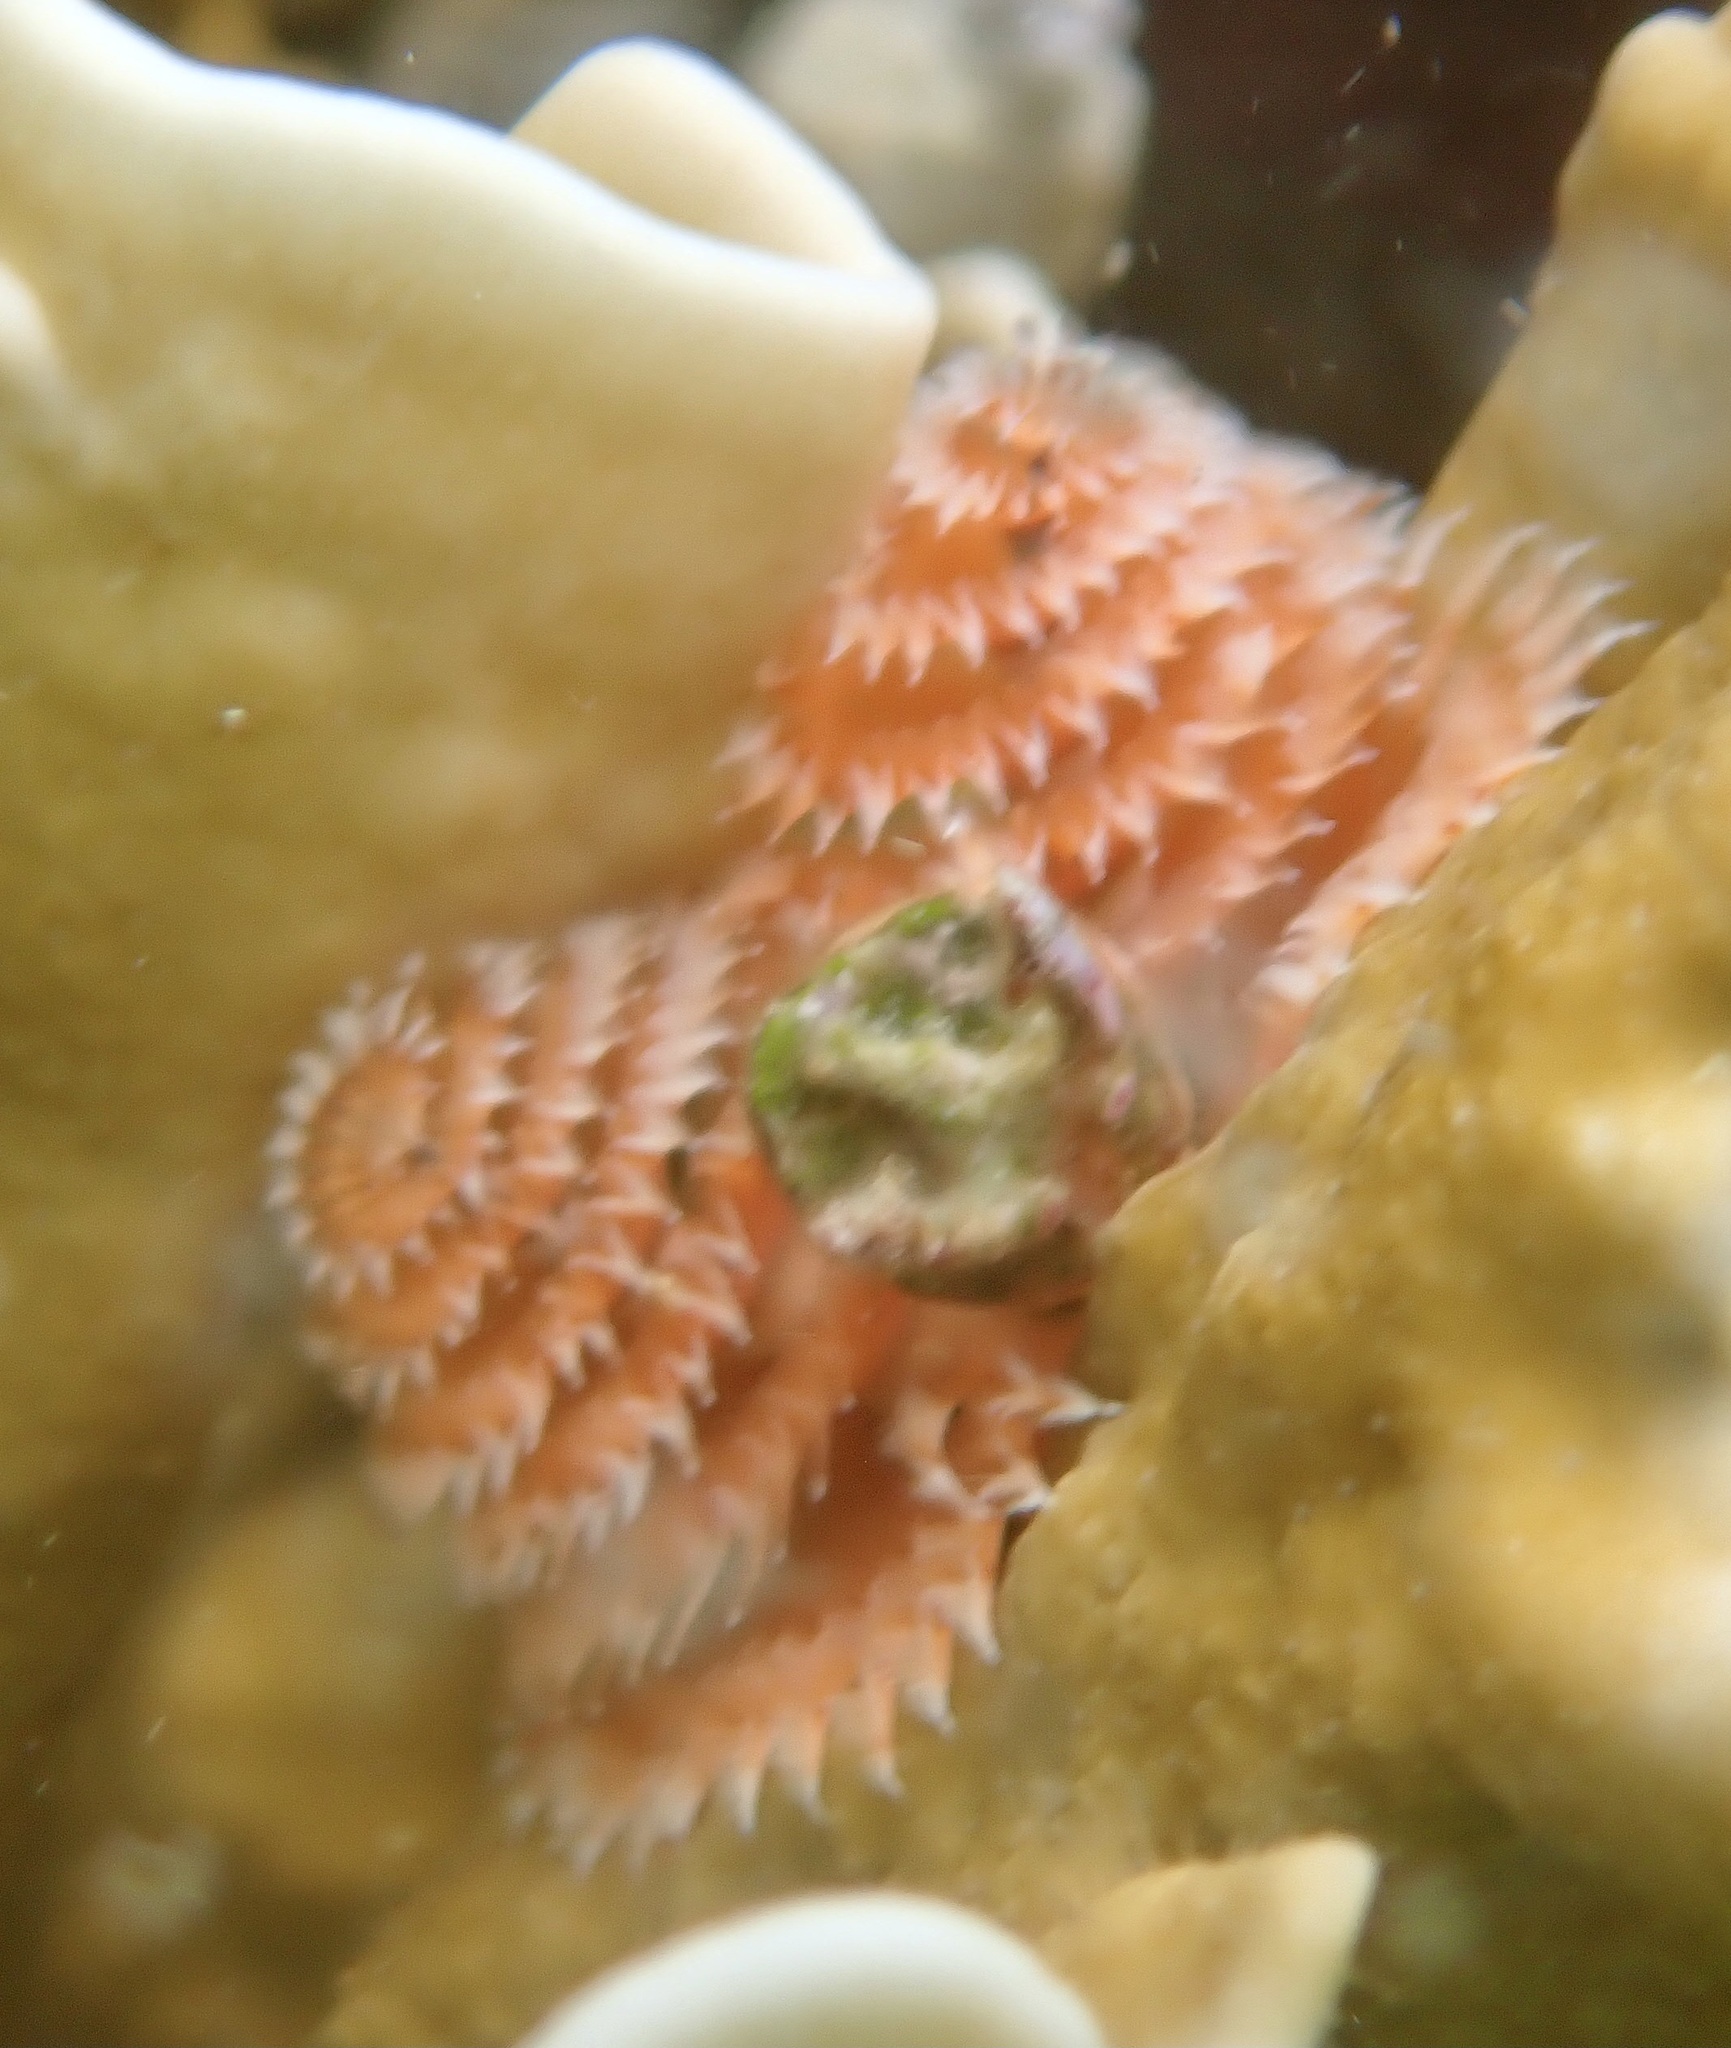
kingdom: Animalia
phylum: Annelida
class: Polychaeta
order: Sabellida
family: Serpulidae
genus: Spirobranchus
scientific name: Spirobranchus giganteus
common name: Christmas tree worm
